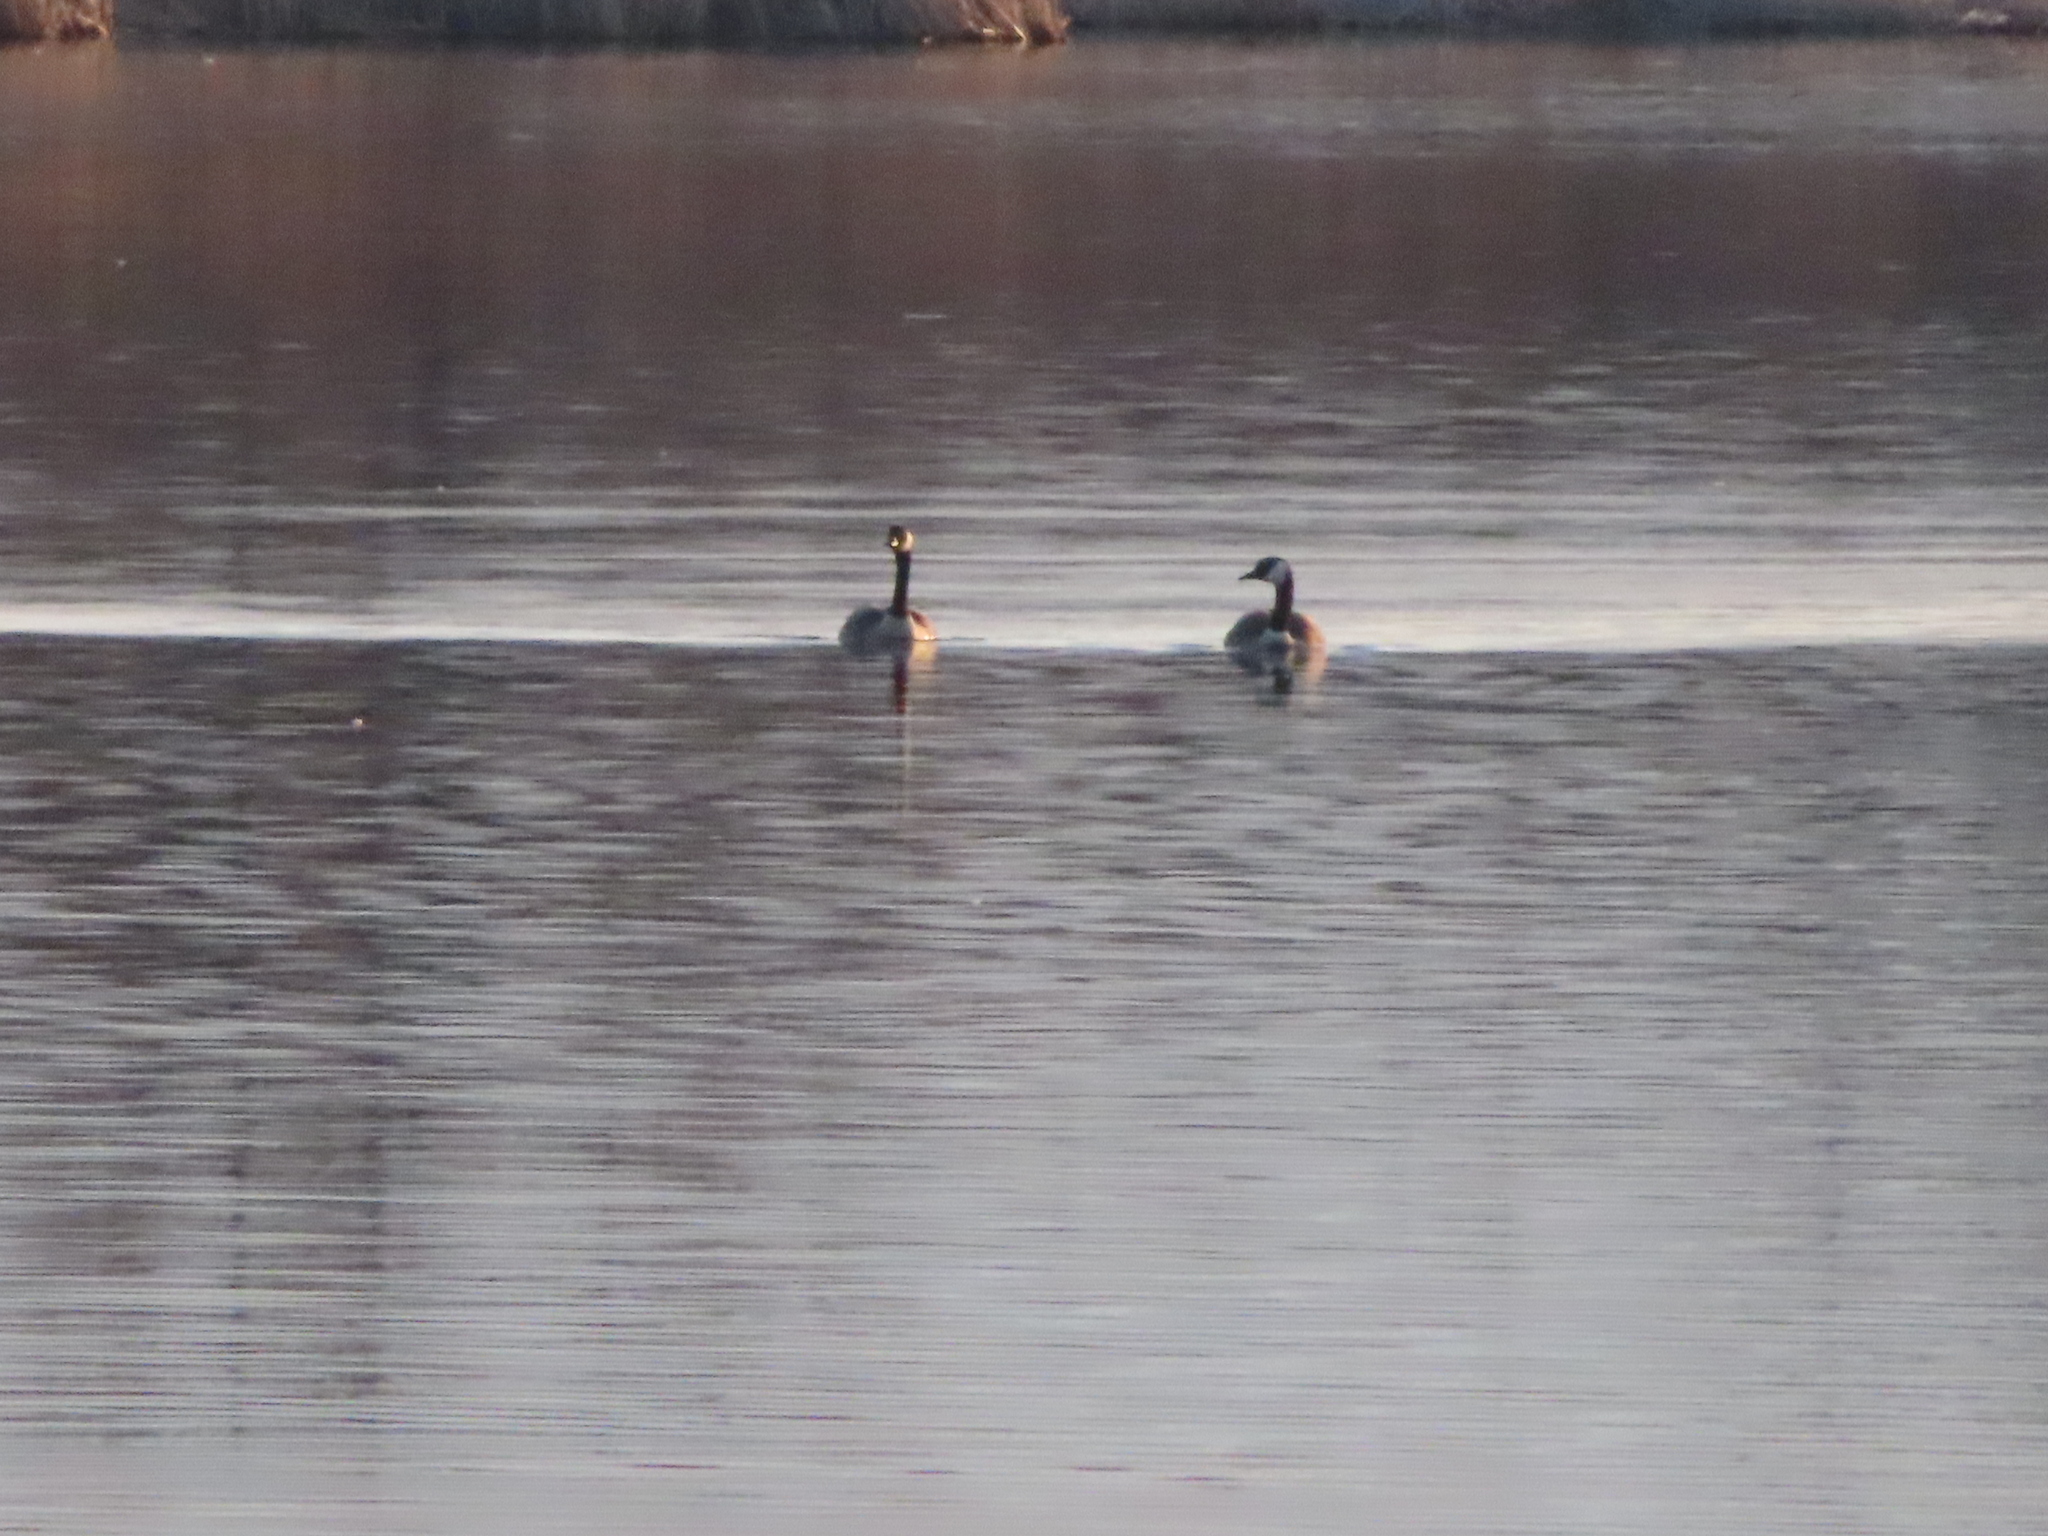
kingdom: Animalia
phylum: Chordata
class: Aves
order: Anseriformes
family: Anatidae
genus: Branta
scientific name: Branta canadensis
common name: Canada goose
